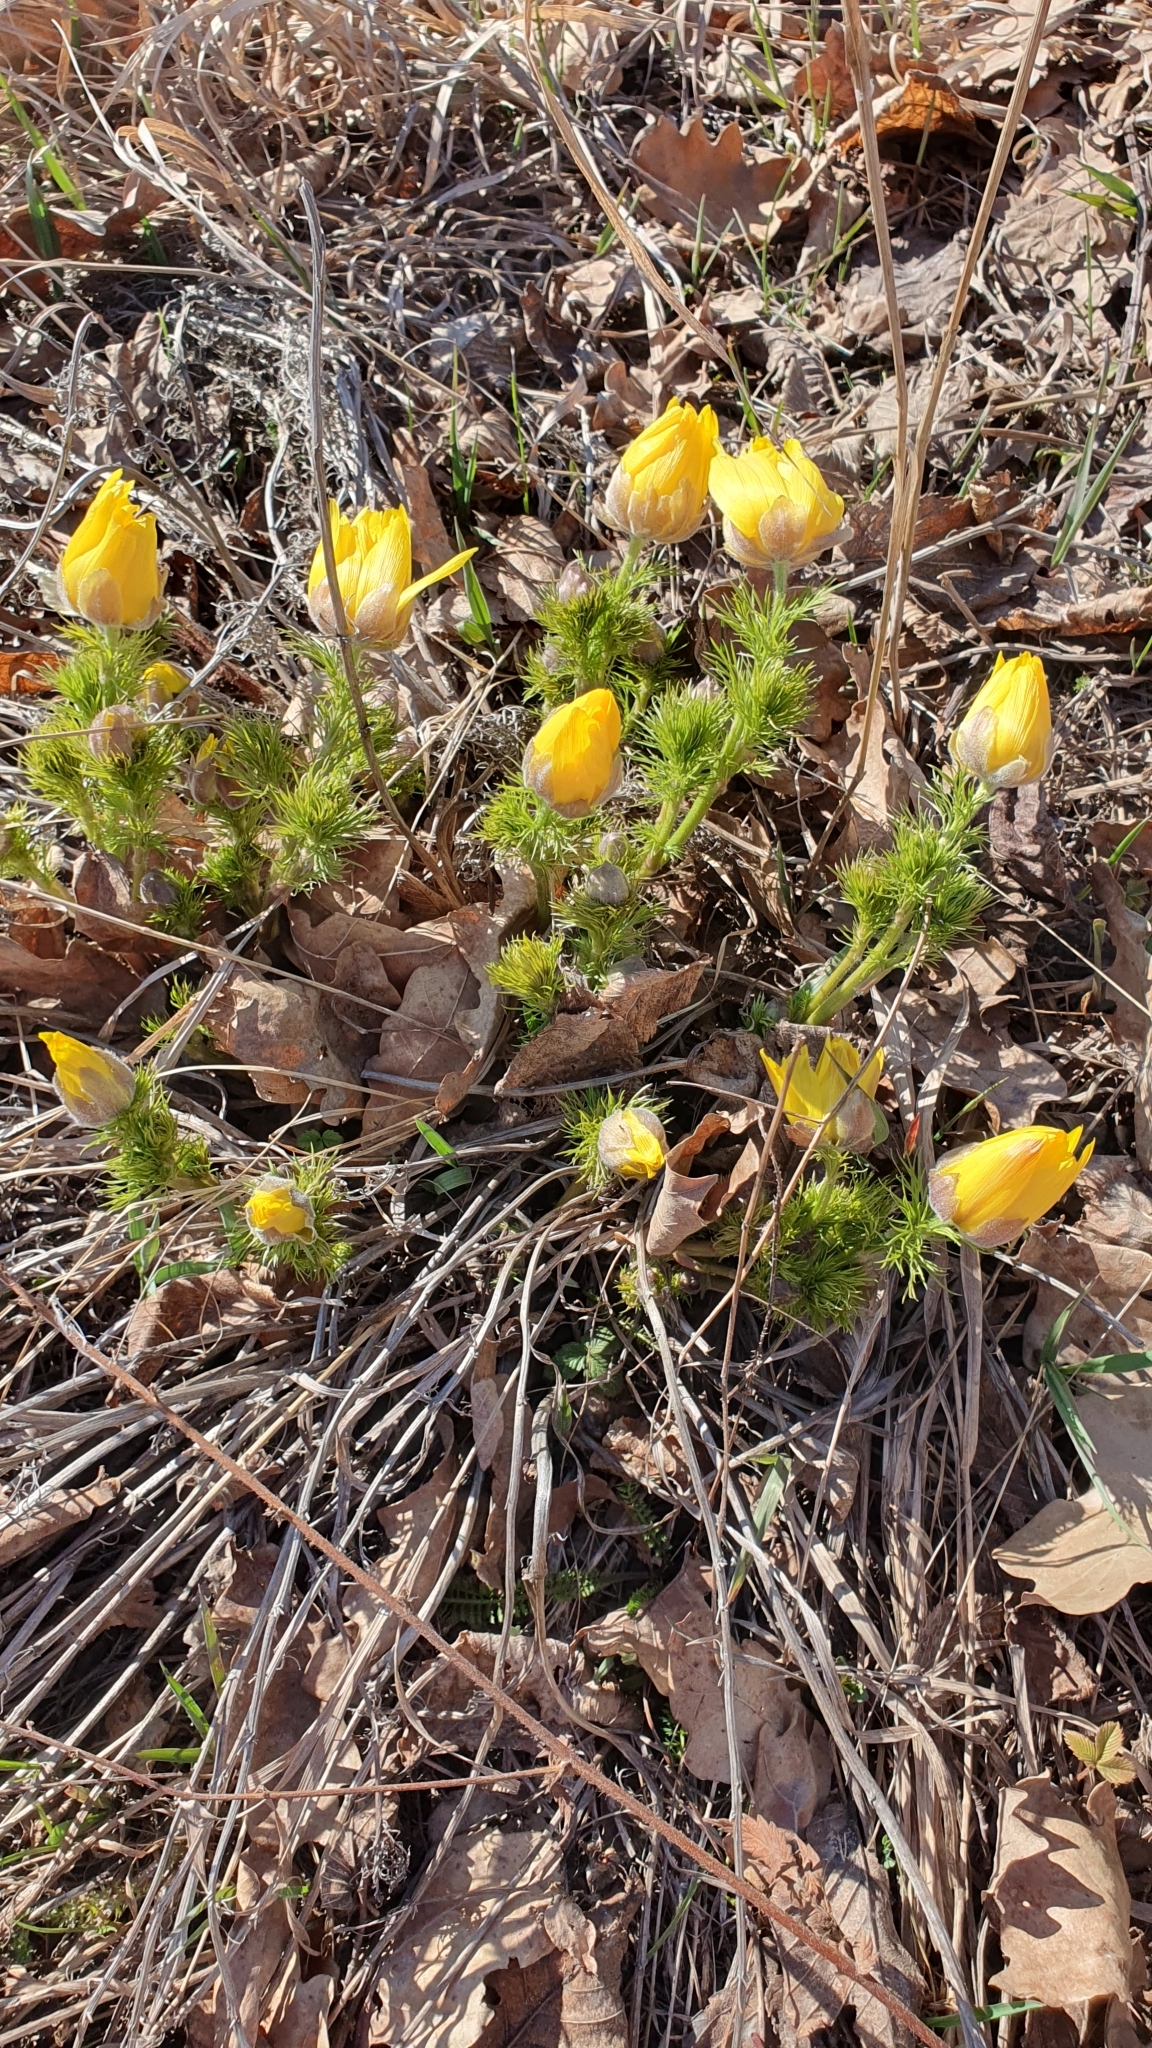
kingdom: Plantae
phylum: Tracheophyta
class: Magnoliopsida
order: Ranunculales
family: Ranunculaceae
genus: Adonis
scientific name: Adonis vernalis
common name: Yellow pheasants-eye
